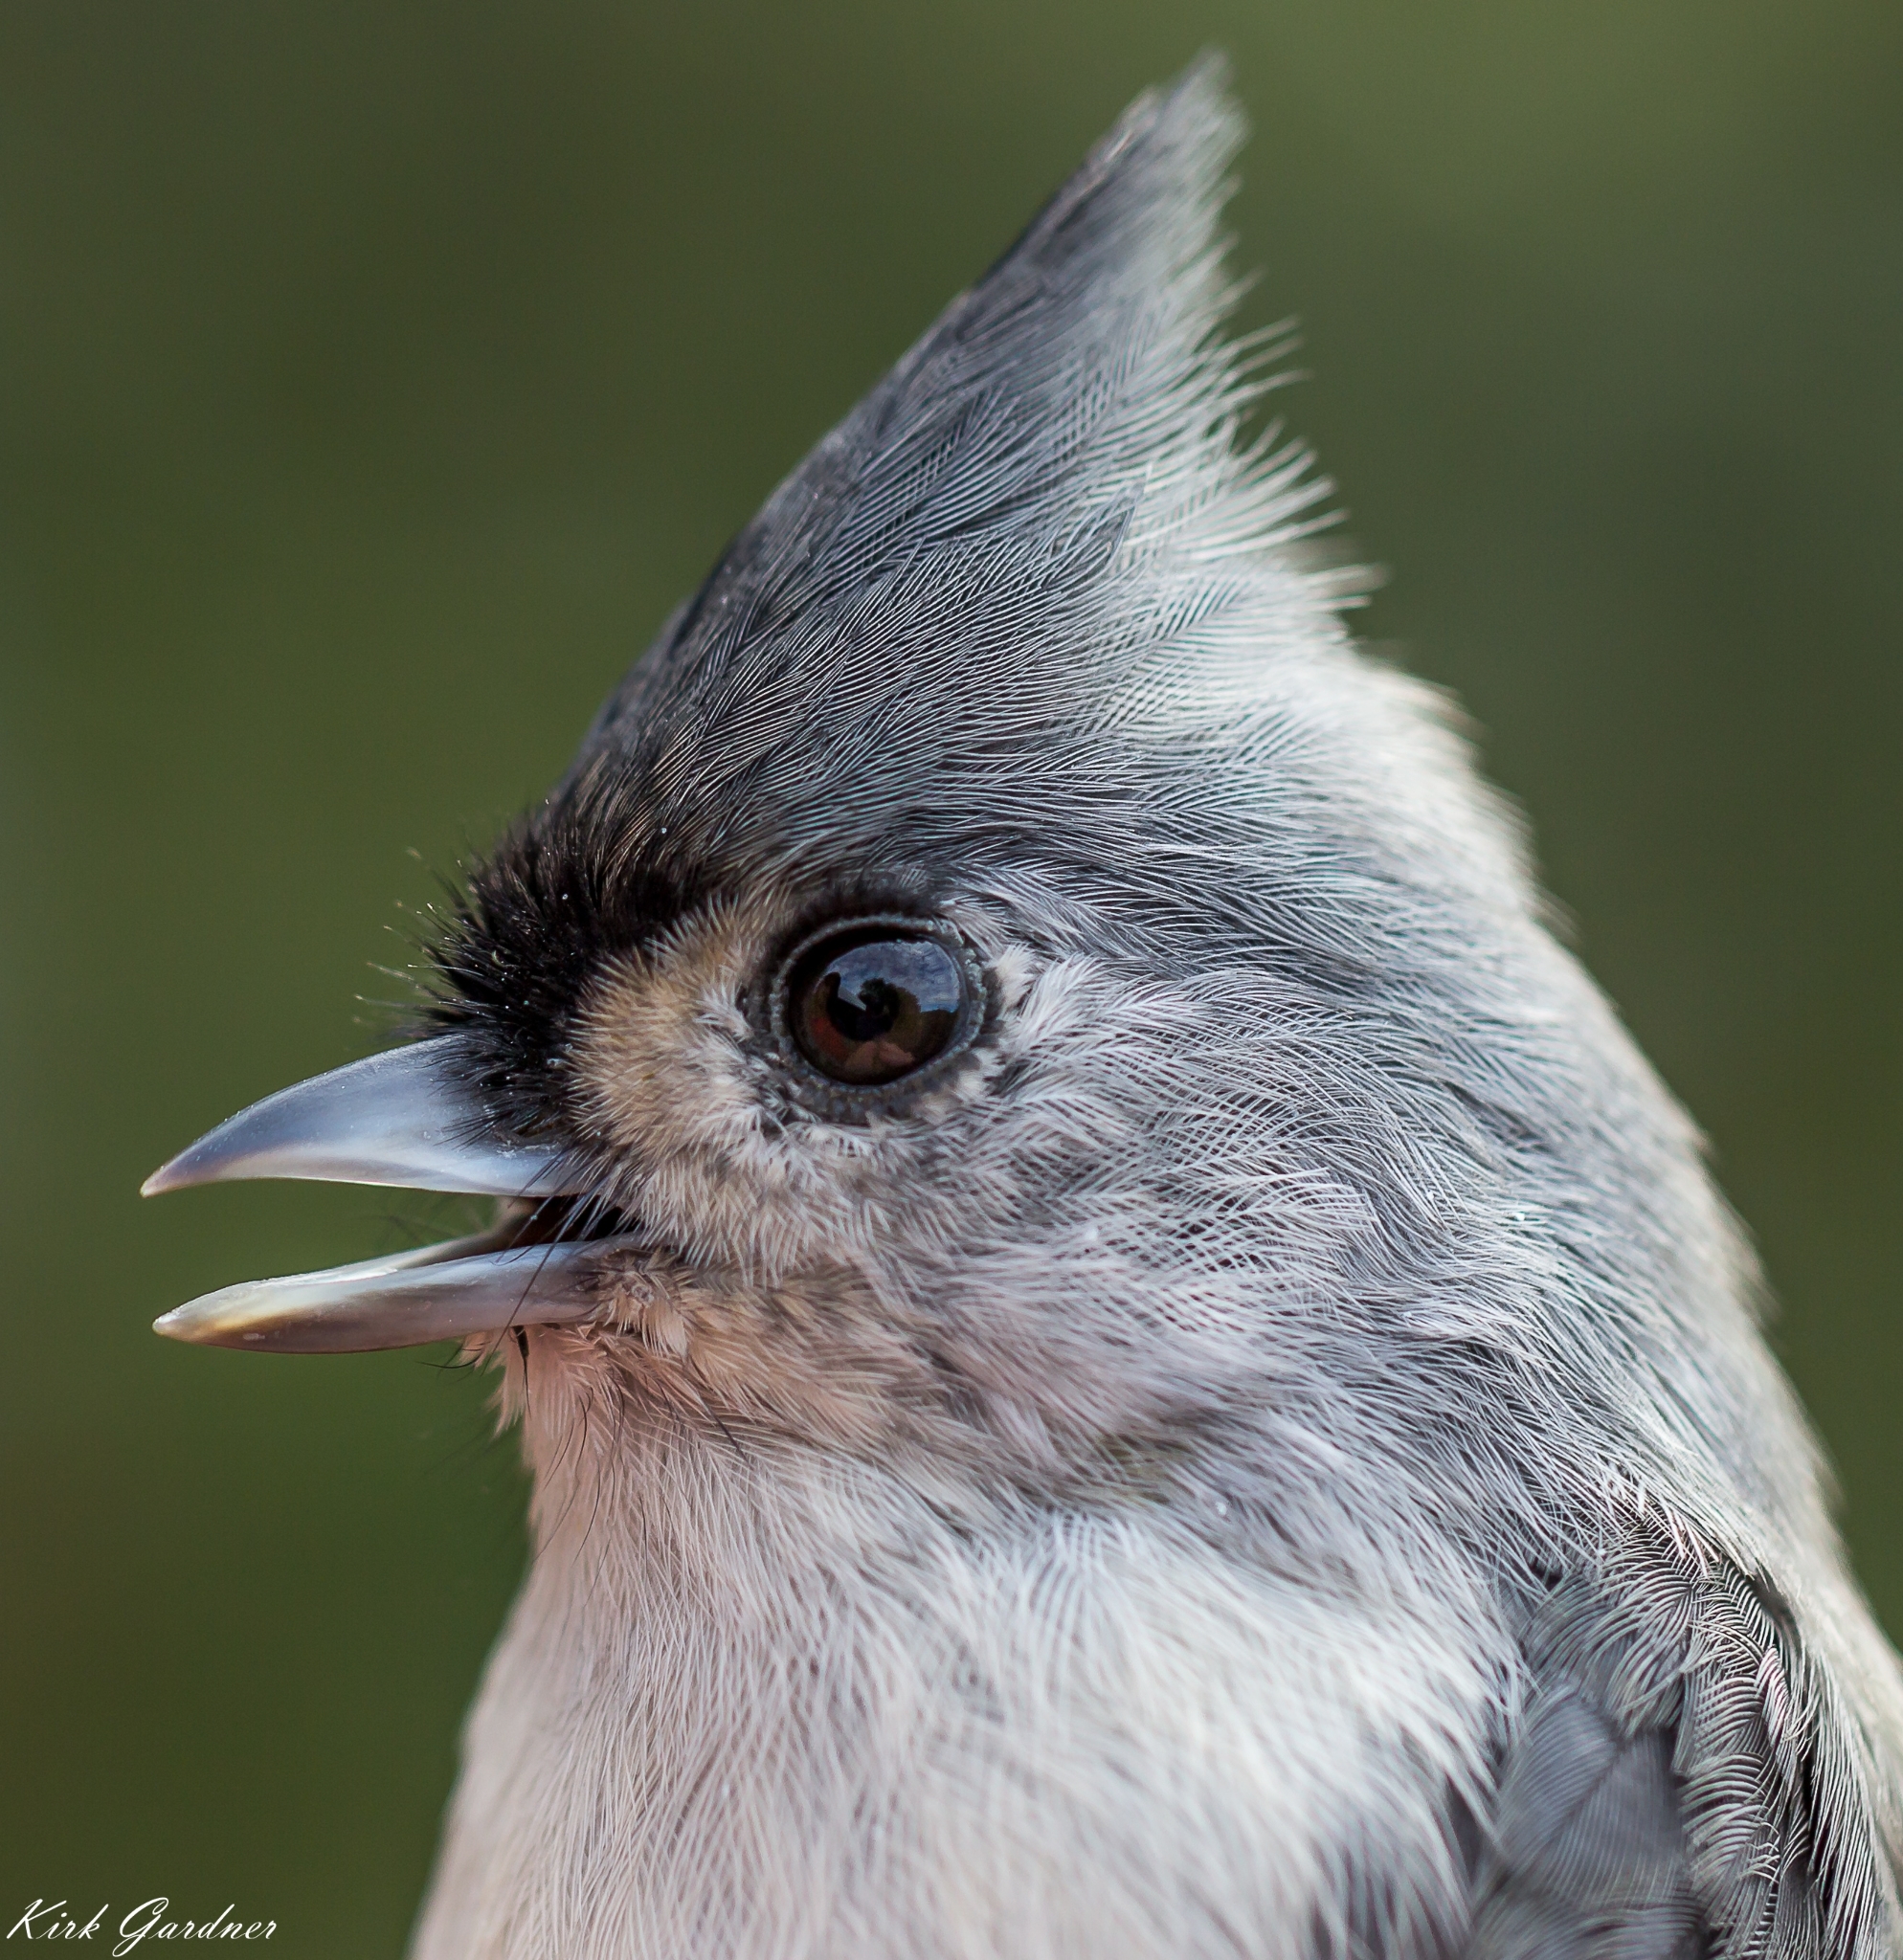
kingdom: Animalia
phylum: Chordata
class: Aves
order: Passeriformes
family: Paridae
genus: Baeolophus
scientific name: Baeolophus bicolor
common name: Tufted titmouse
